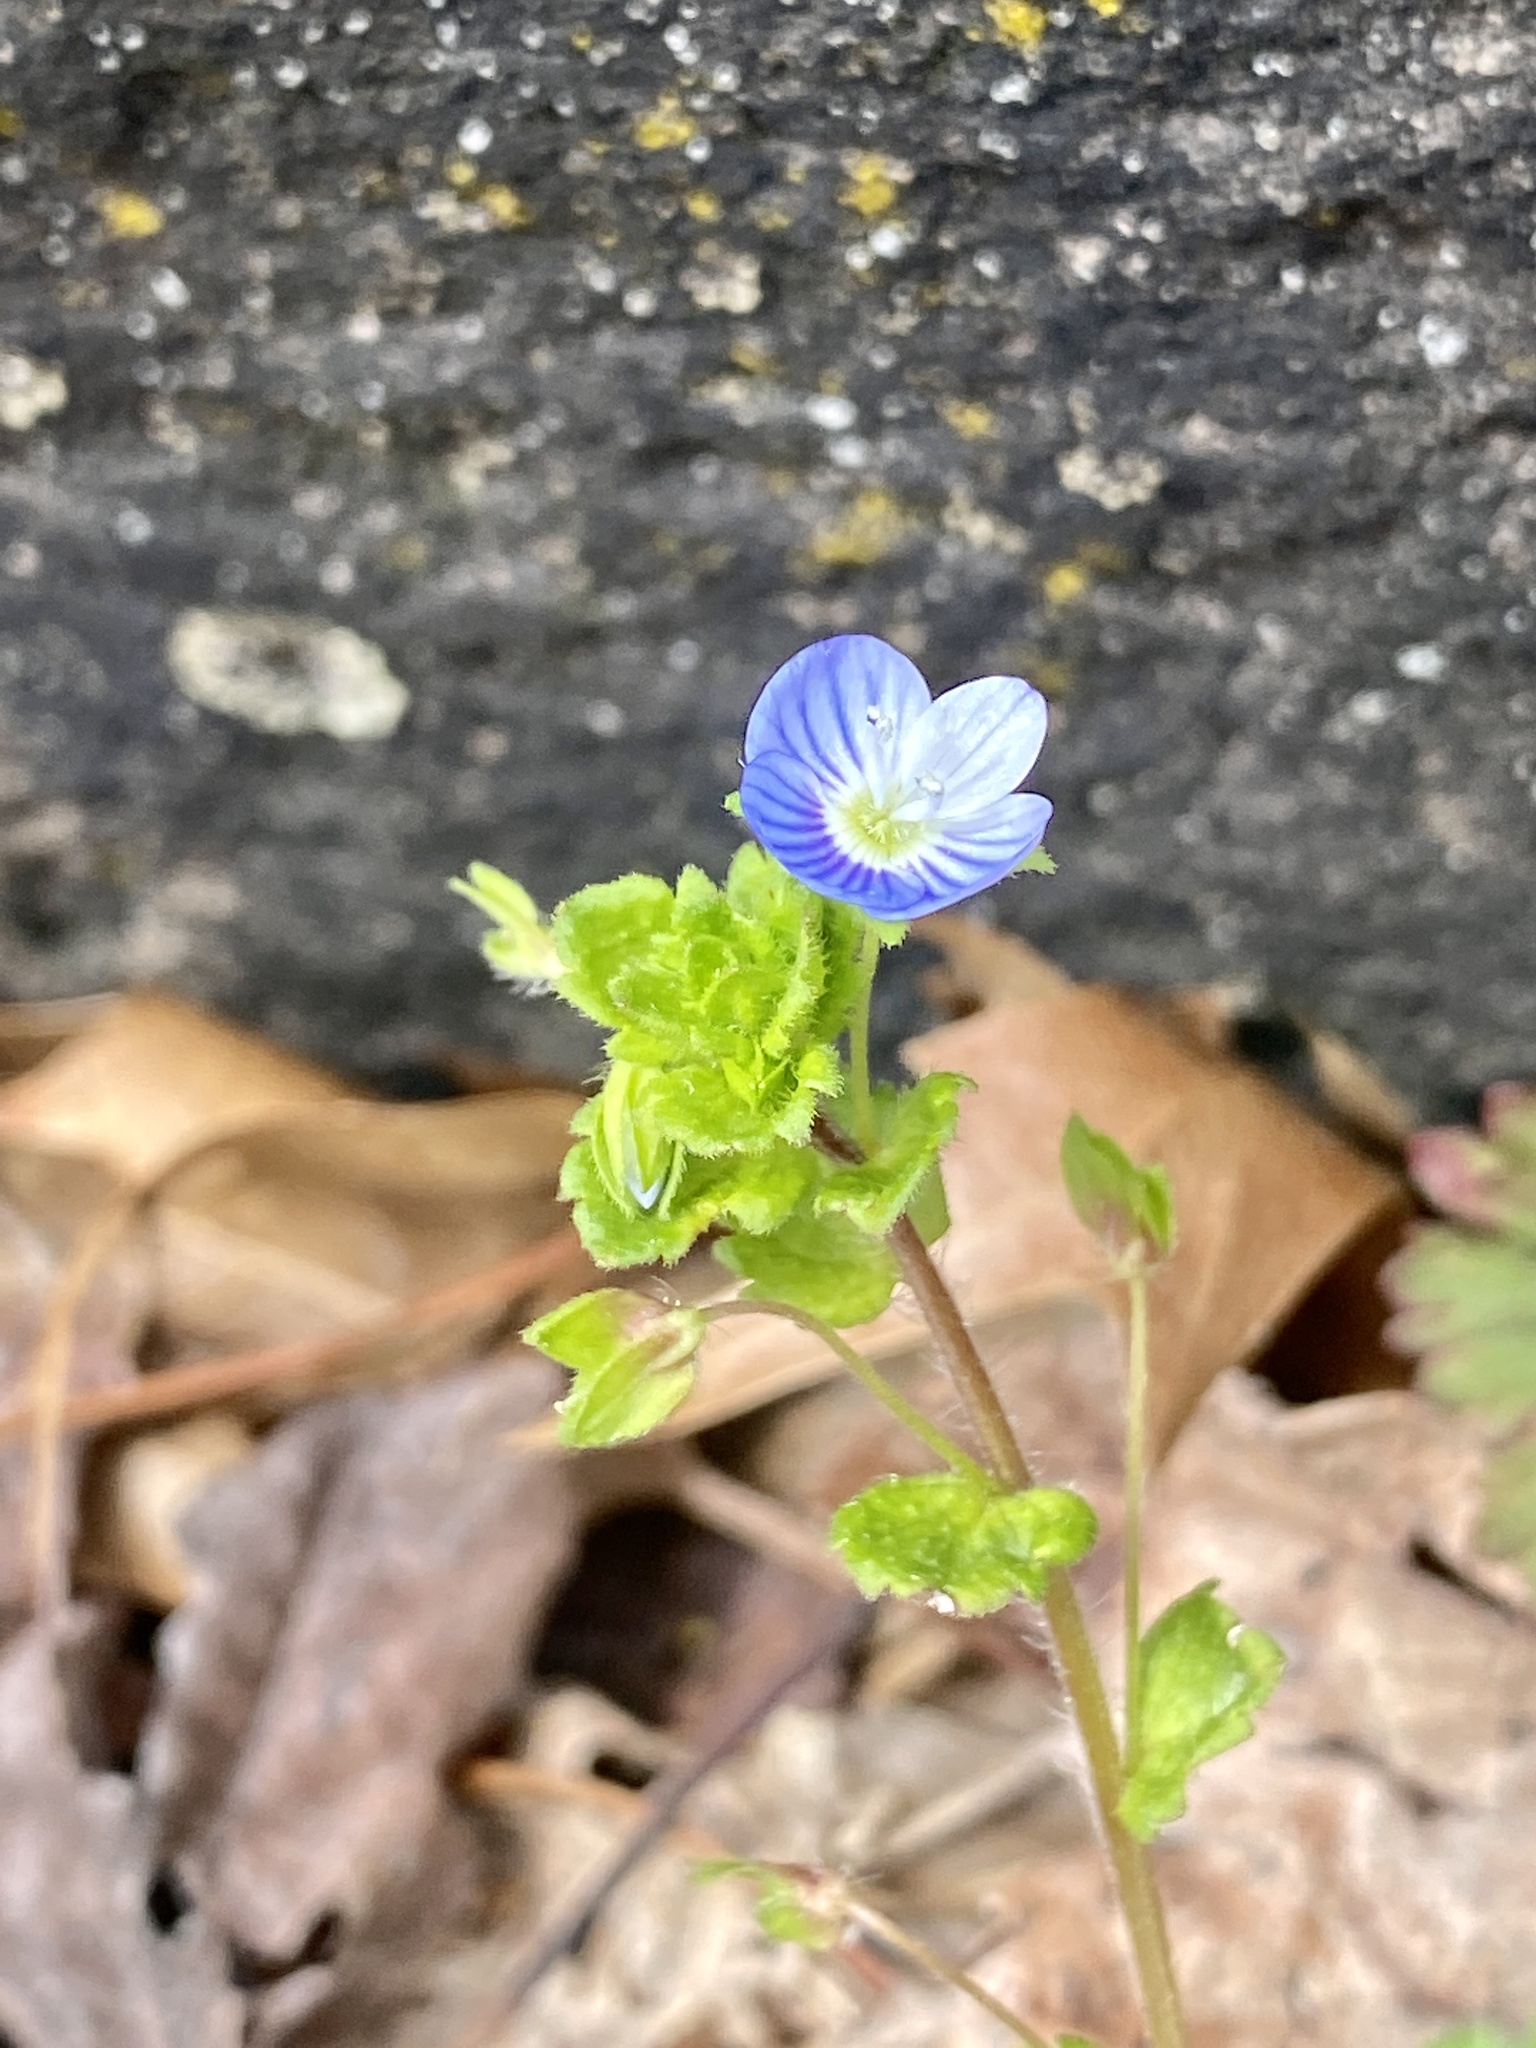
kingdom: Plantae
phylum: Tracheophyta
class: Magnoliopsida
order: Lamiales
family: Plantaginaceae
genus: Veronica
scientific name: Veronica persica
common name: Common field-speedwell
